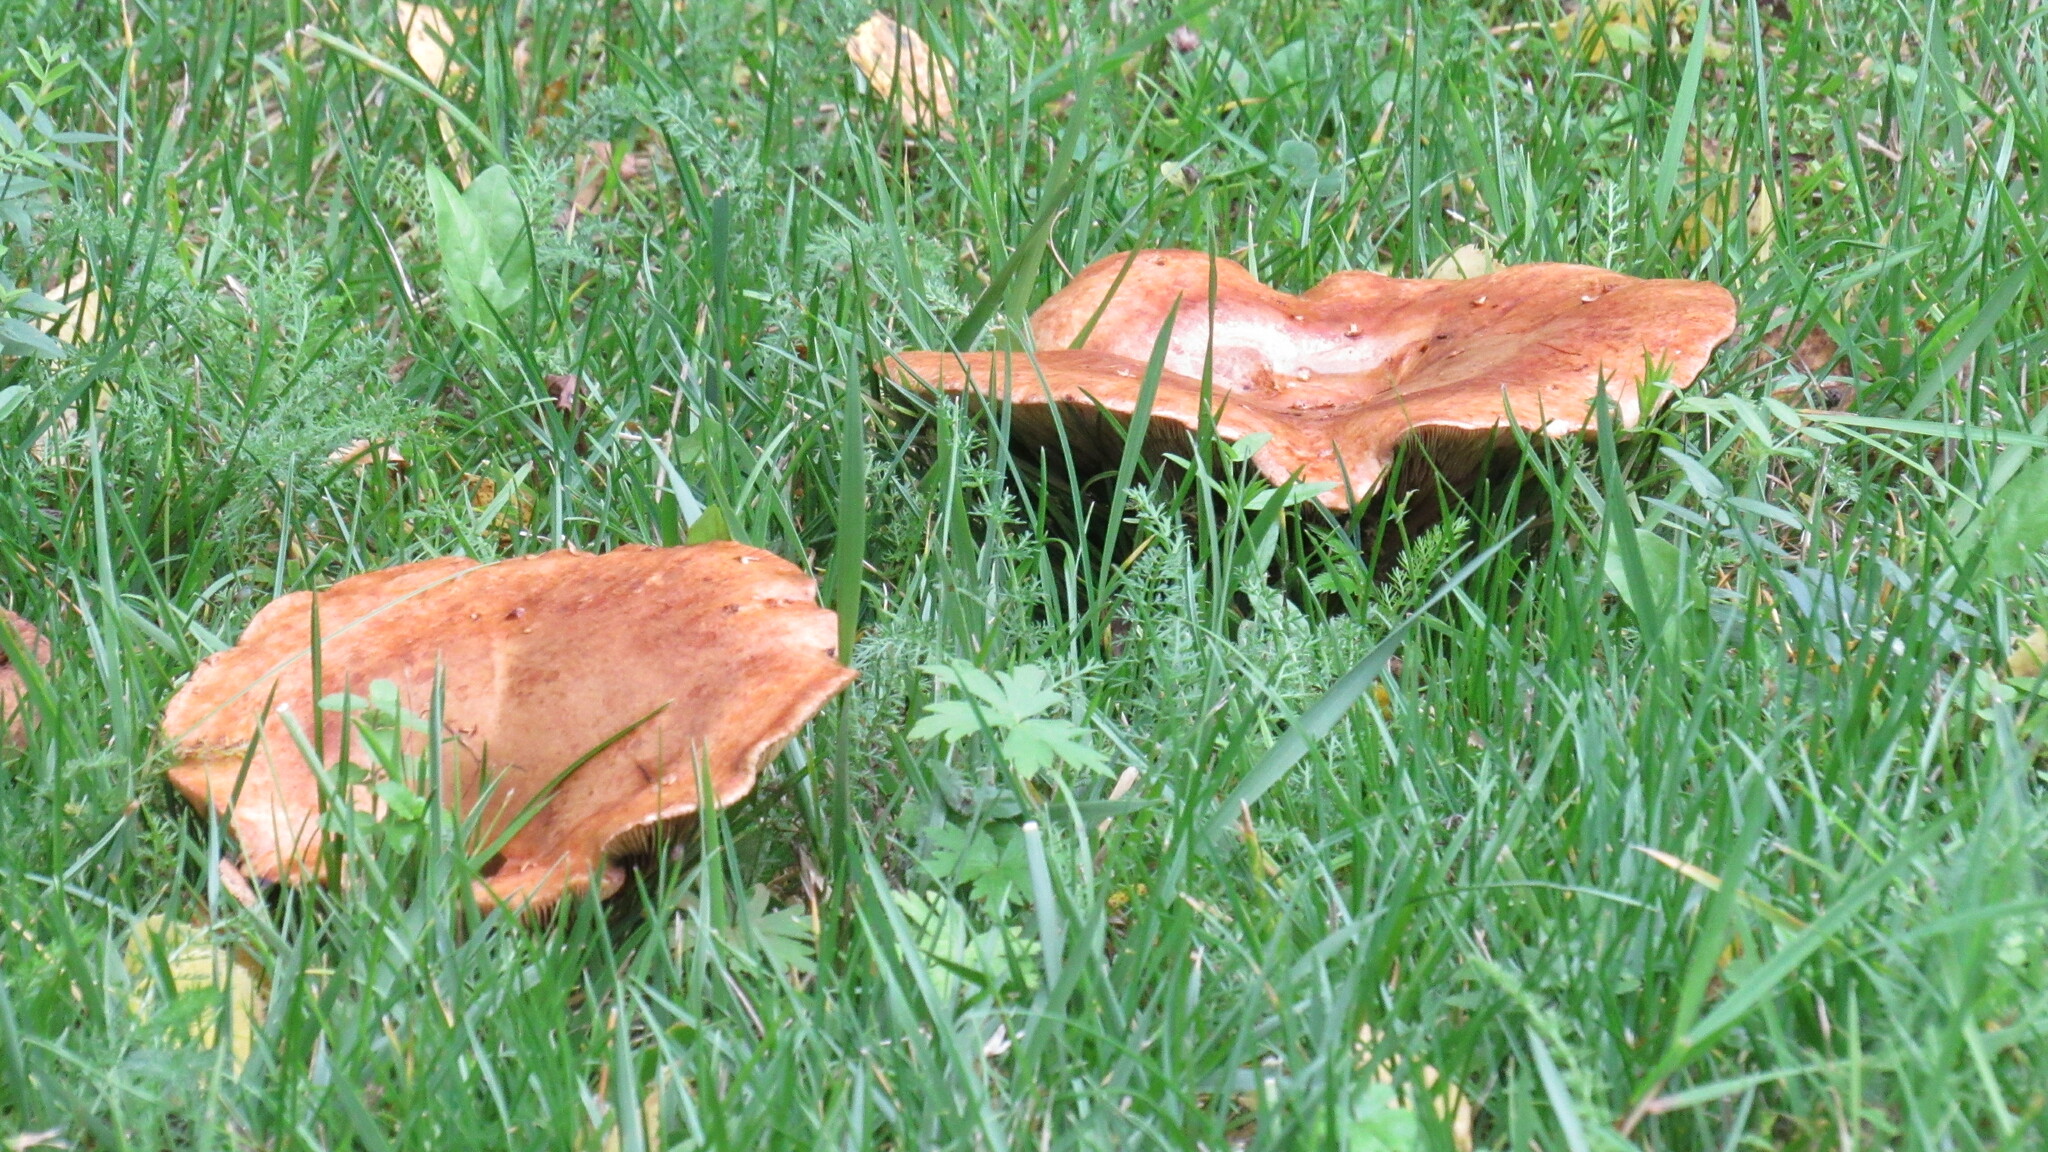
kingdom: Fungi
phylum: Basidiomycota
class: Agaricomycetes
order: Boletales
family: Paxillaceae
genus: Paxillus
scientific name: Paxillus involutus
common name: Brown roll rim
